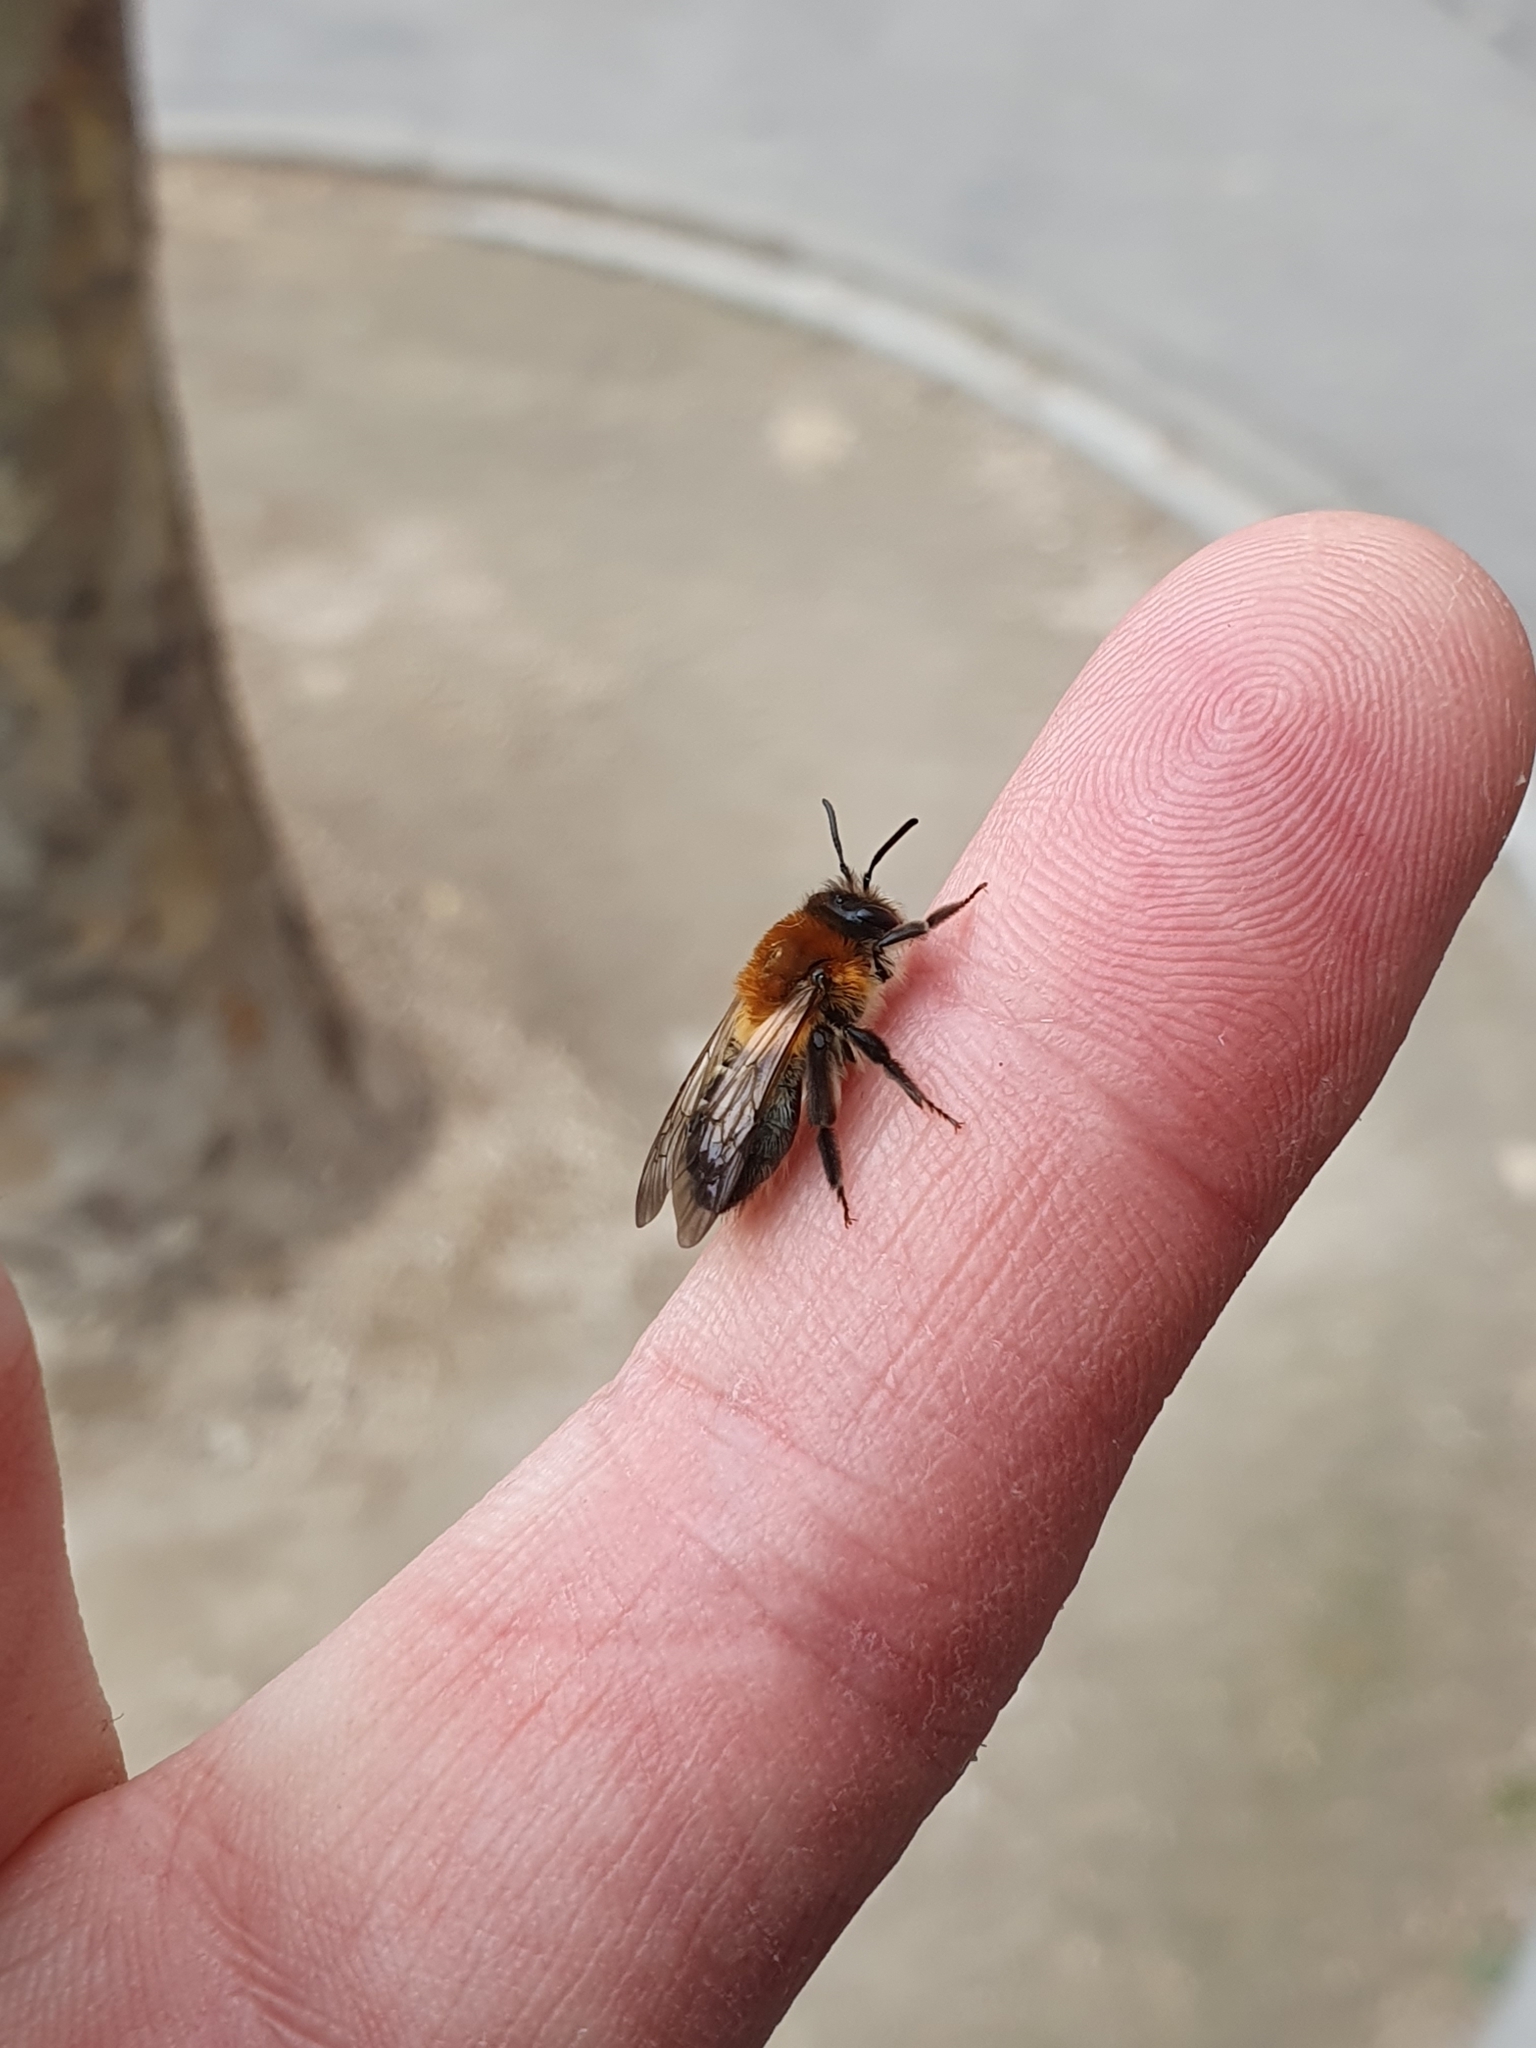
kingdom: Animalia
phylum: Arthropoda
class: Insecta
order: Hymenoptera
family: Andrenidae
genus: Andrena
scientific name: Andrena nitida
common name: Grey-patched mining bee
